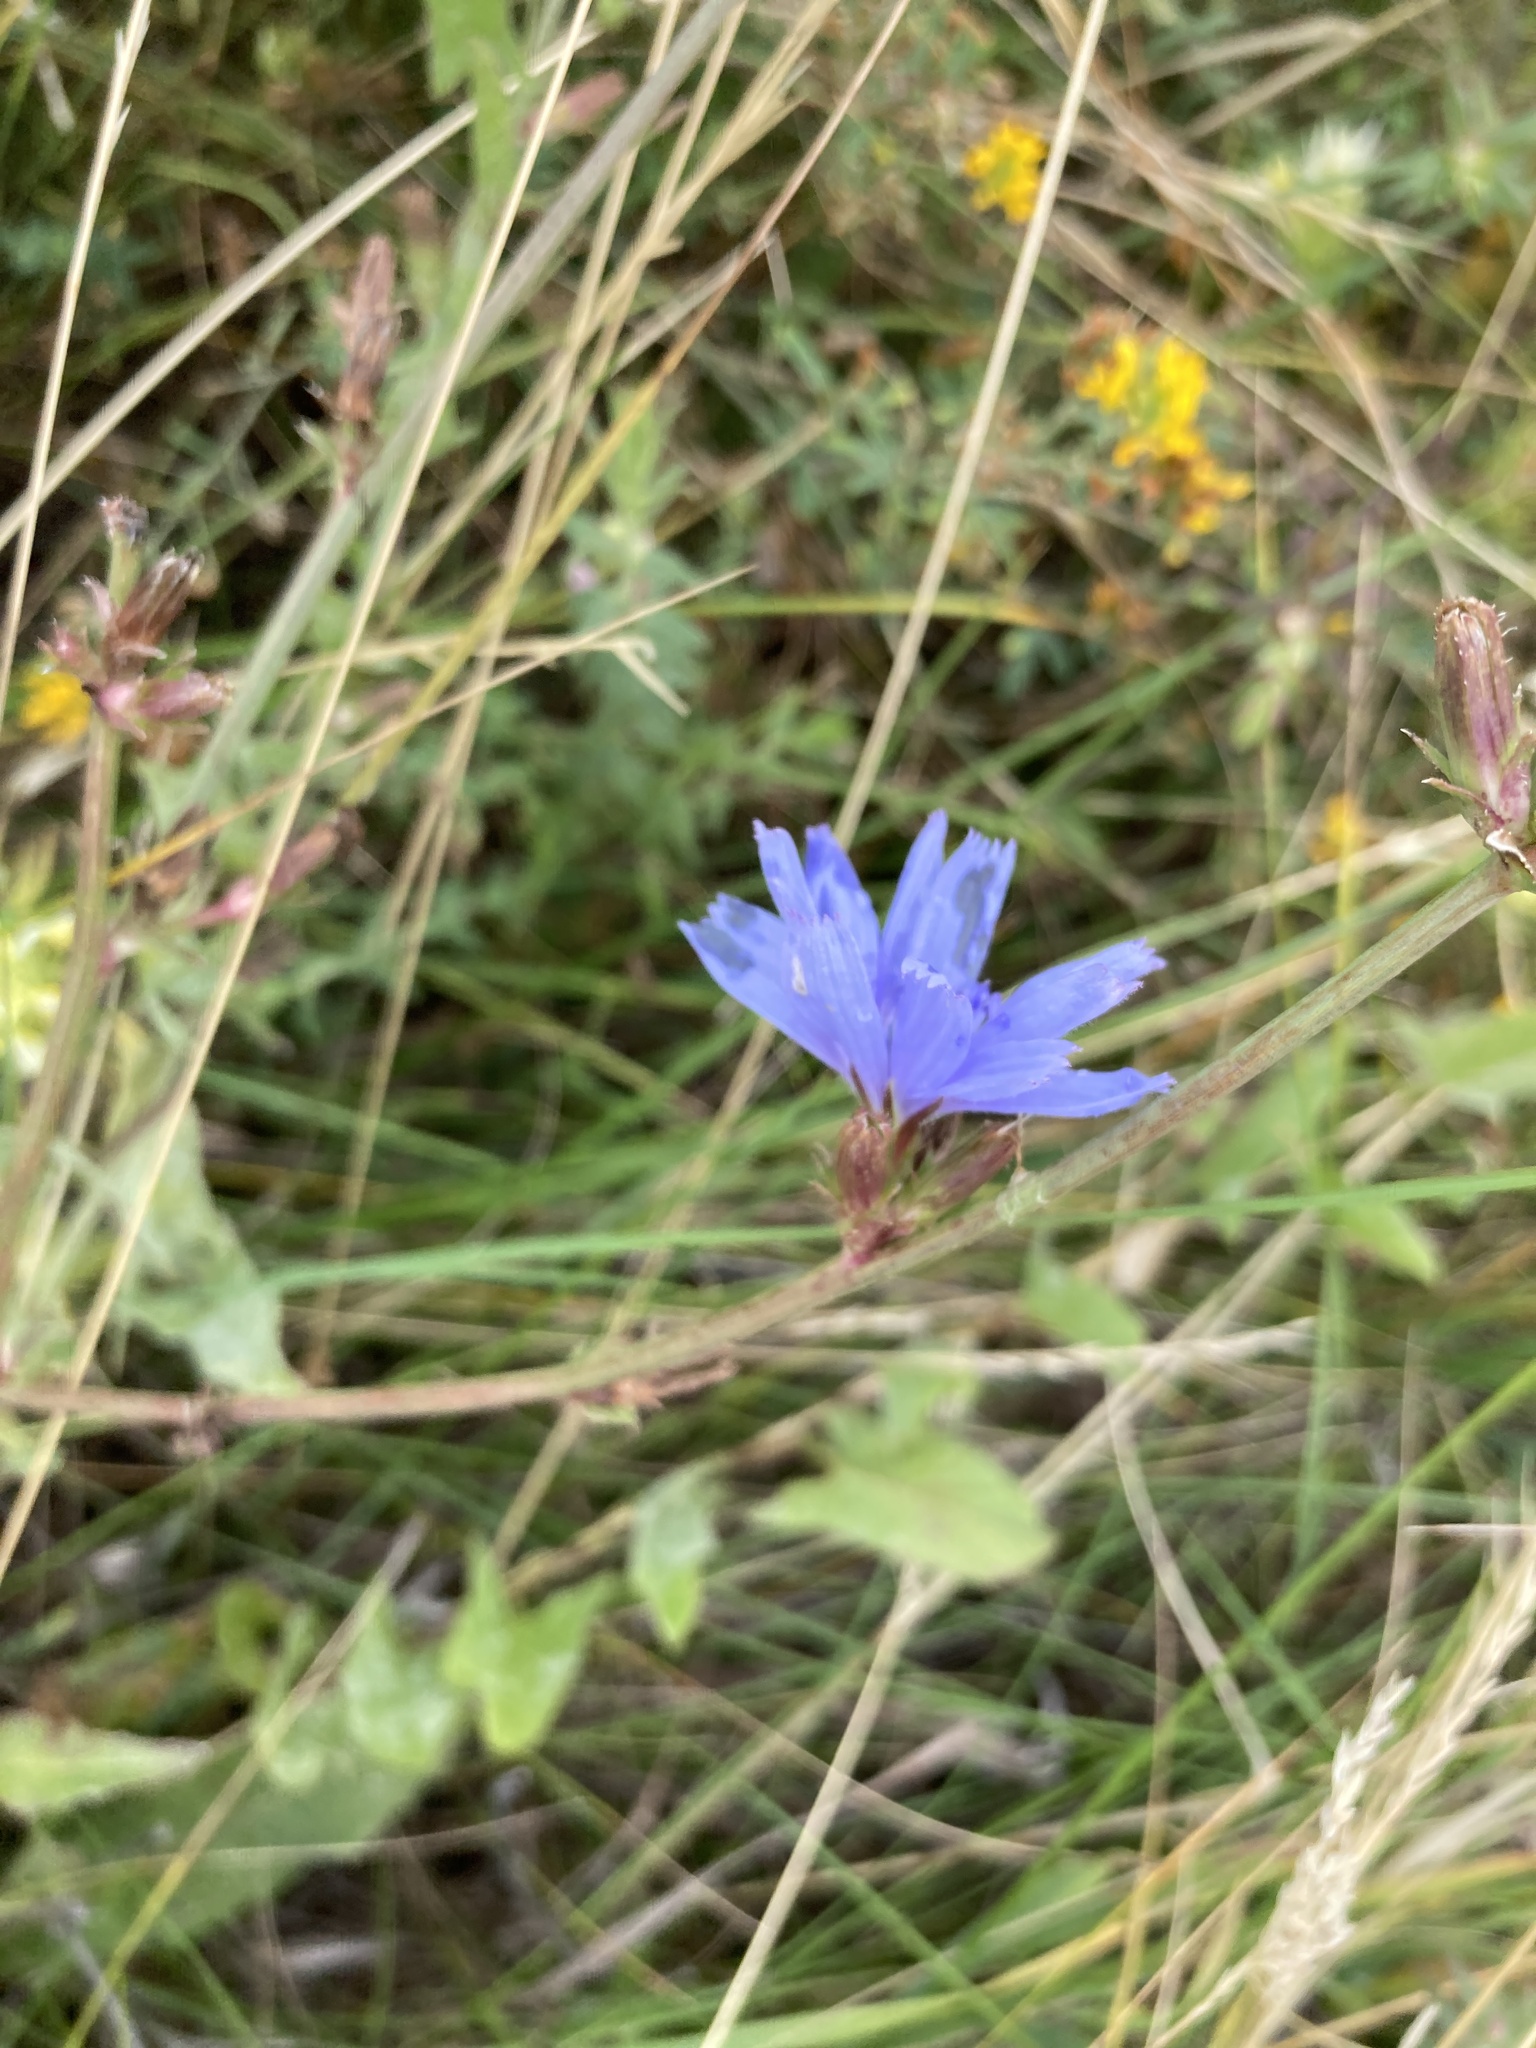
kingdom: Plantae
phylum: Tracheophyta
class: Magnoliopsida
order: Asterales
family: Asteraceae
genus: Cichorium
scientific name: Cichorium intybus
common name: Chicory
